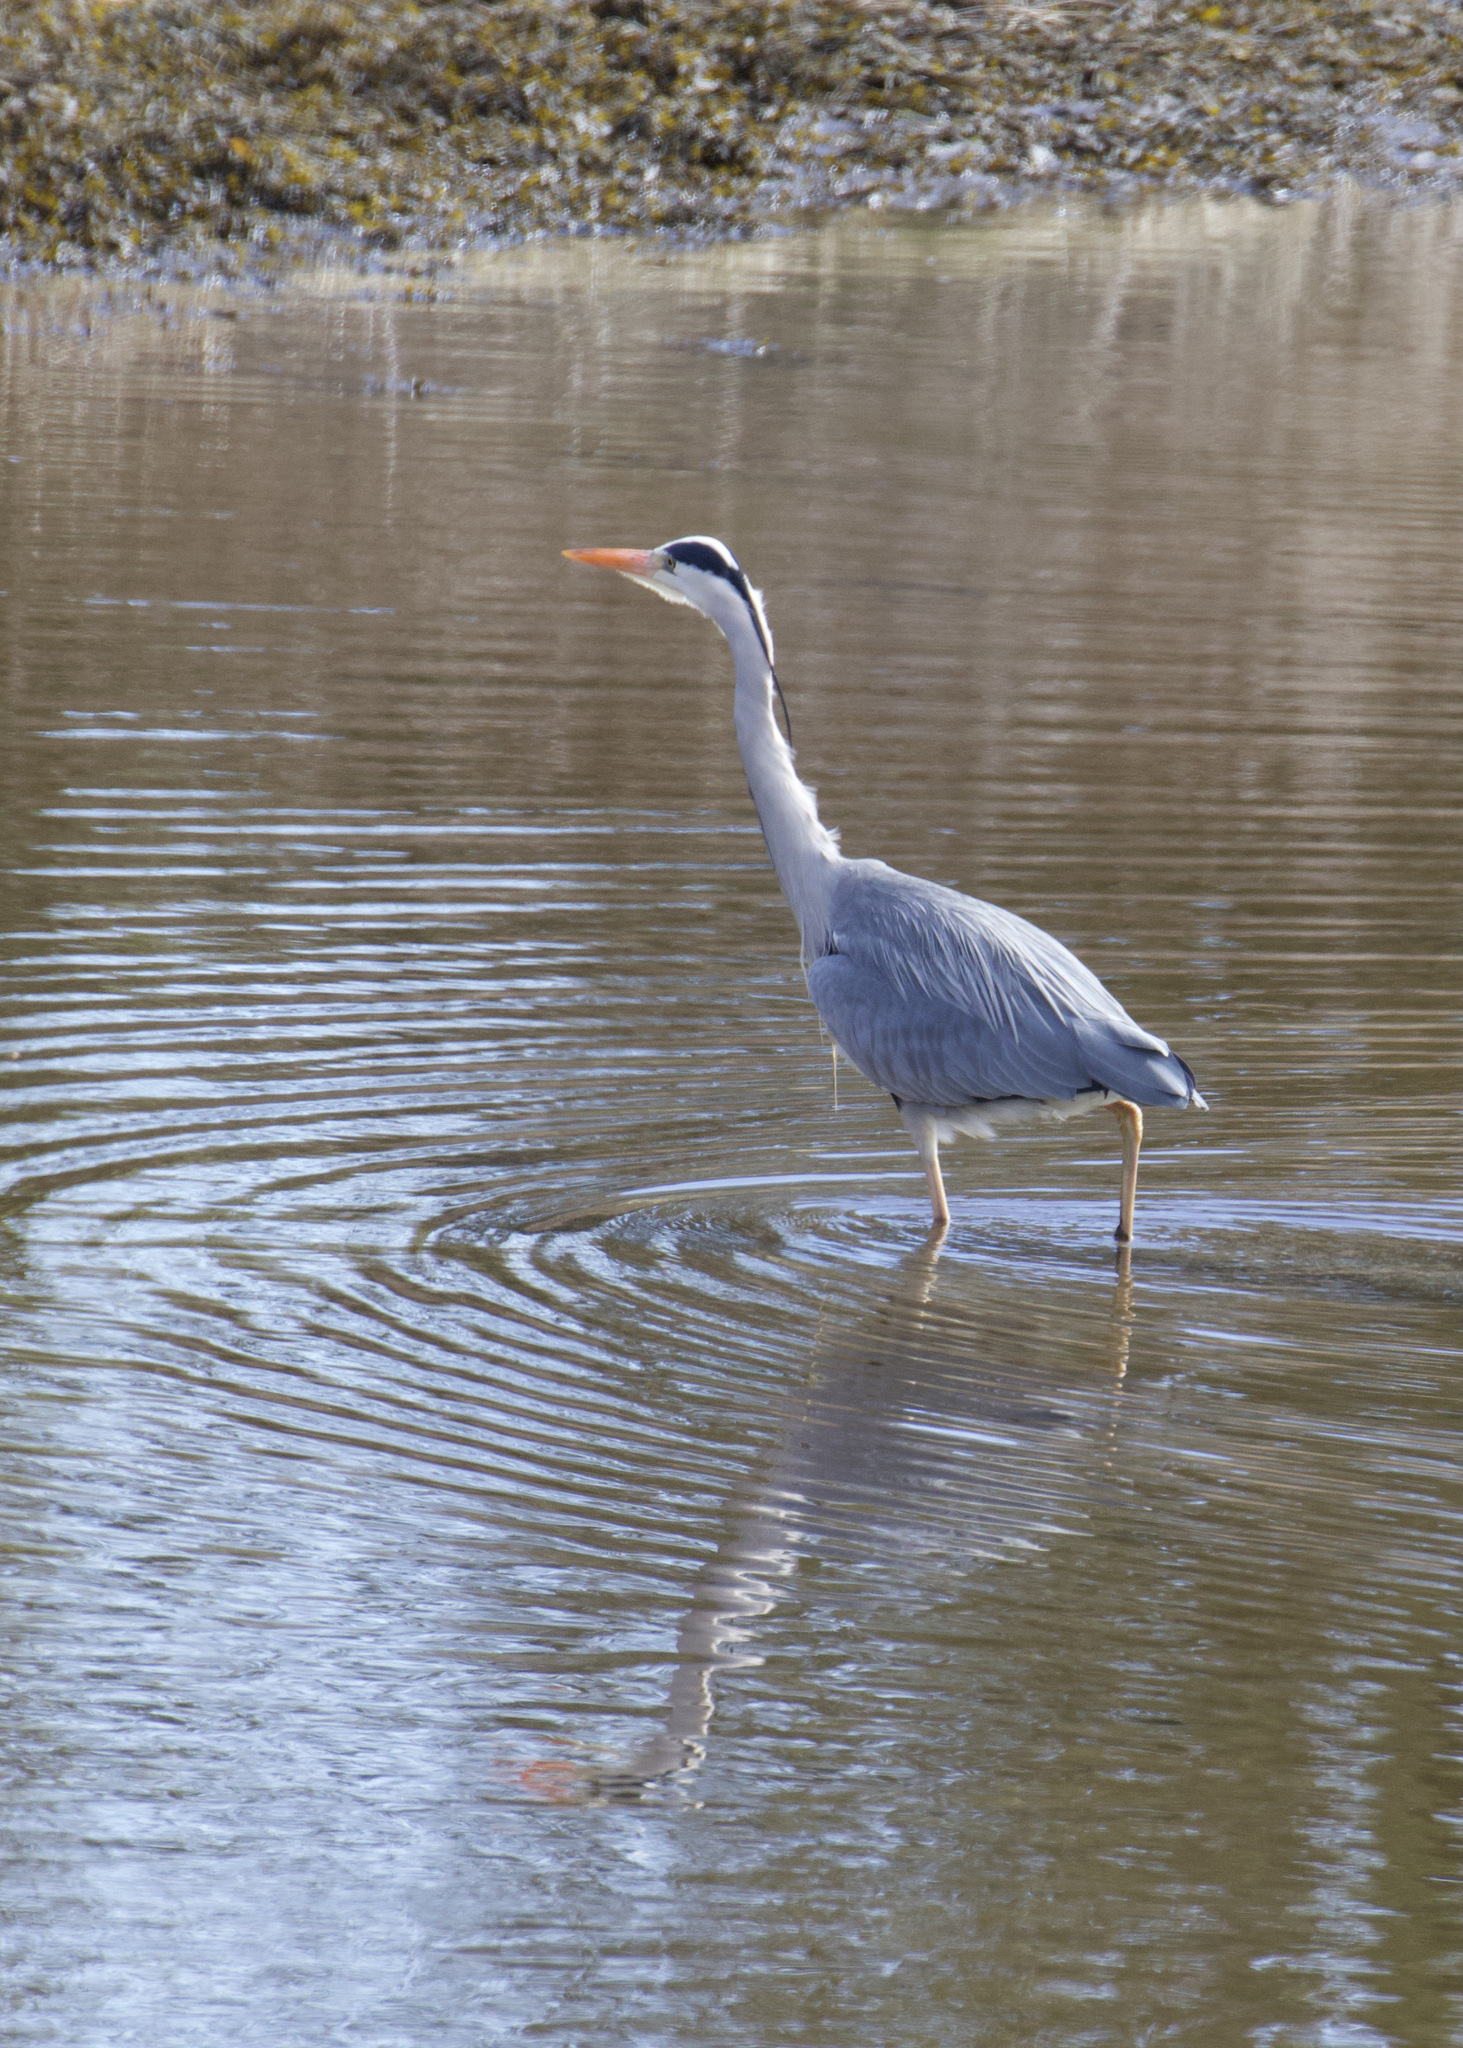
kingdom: Animalia
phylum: Chordata
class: Aves
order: Pelecaniformes
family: Ardeidae
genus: Ardea
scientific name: Ardea cinerea
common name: Grey heron
